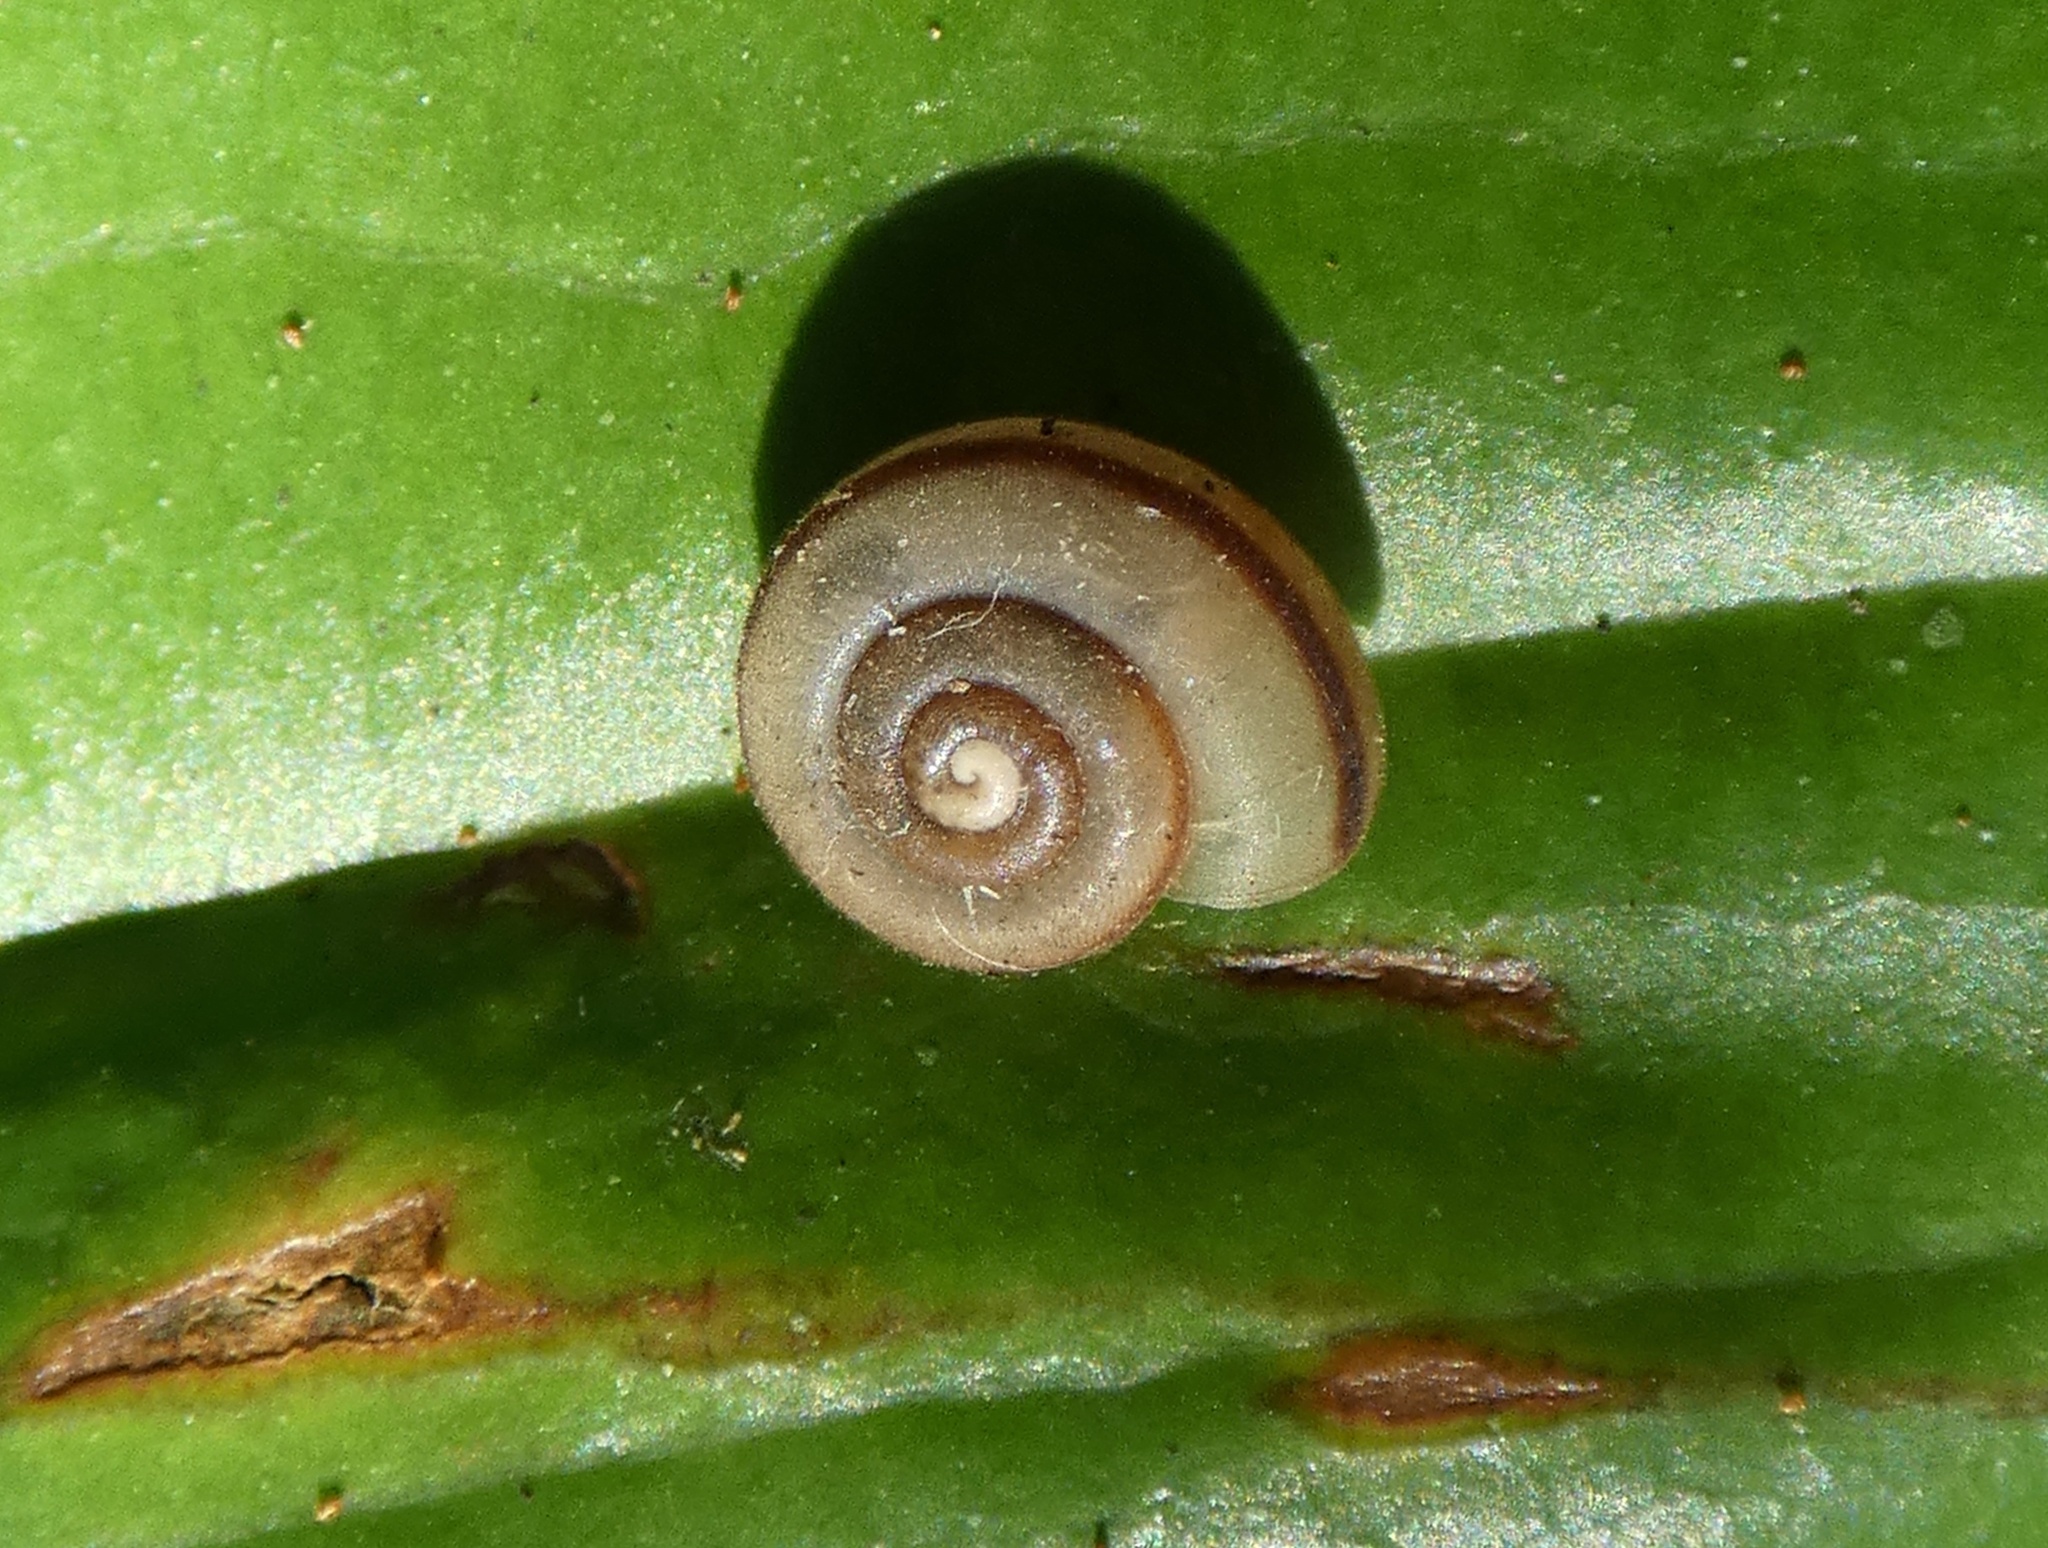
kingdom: Animalia
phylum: Mollusca
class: Gastropoda
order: Stylommatophora
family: Camaenidae
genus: Protolinitis
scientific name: Protolinitis terriirwinae
